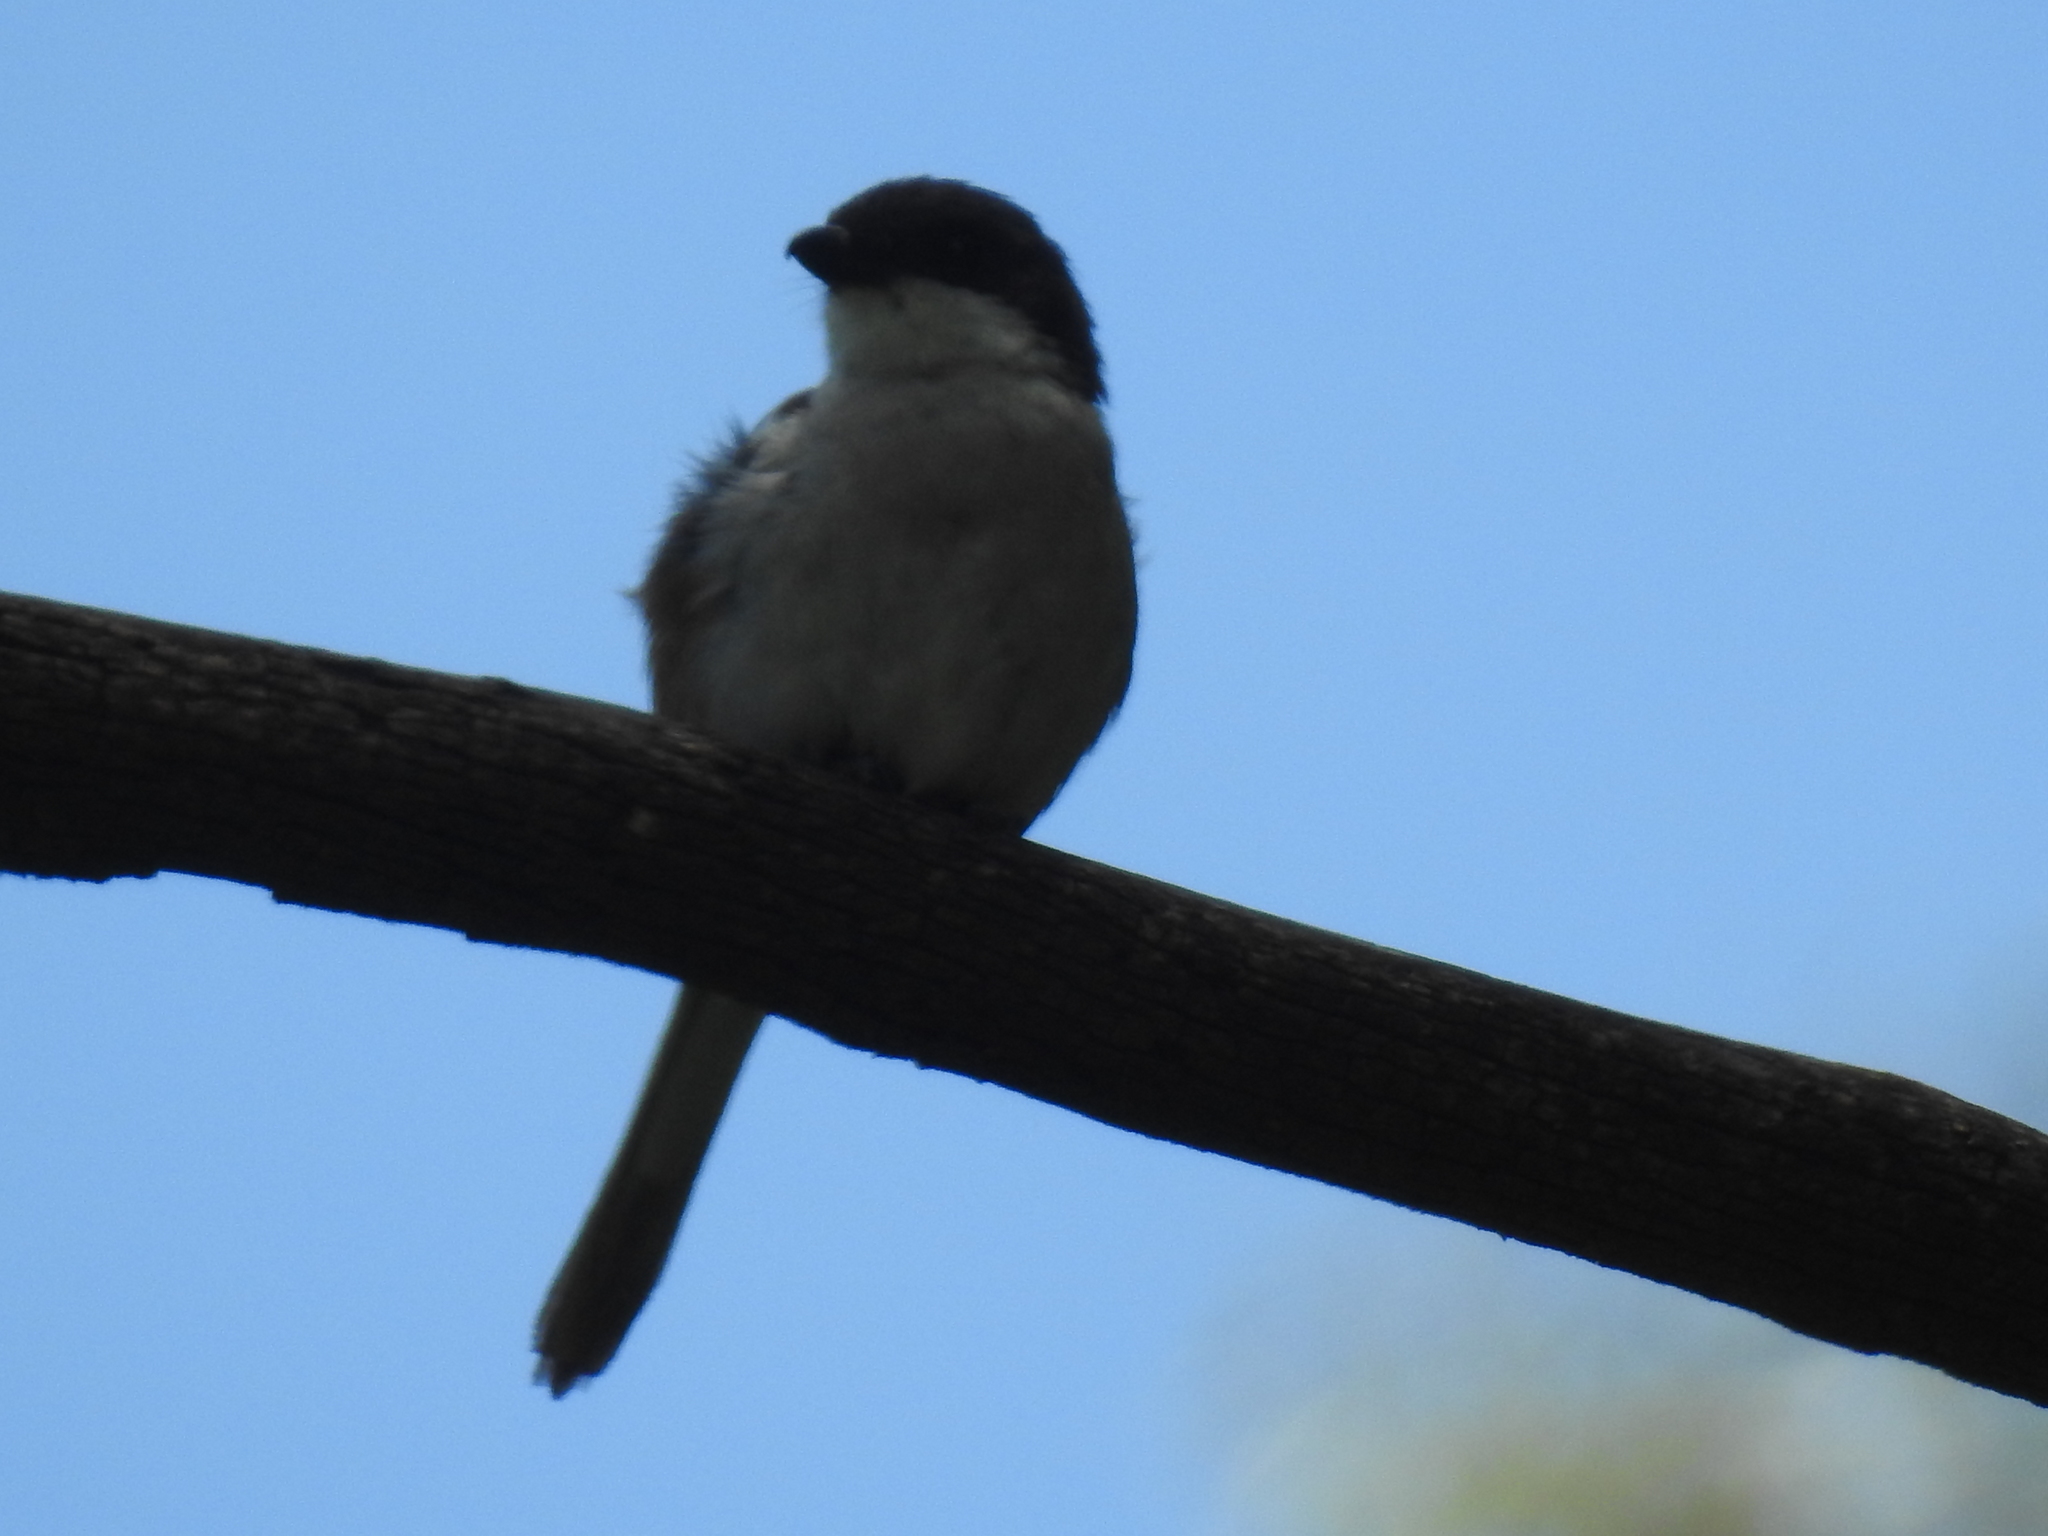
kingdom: Animalia
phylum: Chordata
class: Aves
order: Passeriformes
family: Laniidae
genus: Lanius
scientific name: Lanius collaris
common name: Southern fiscal
